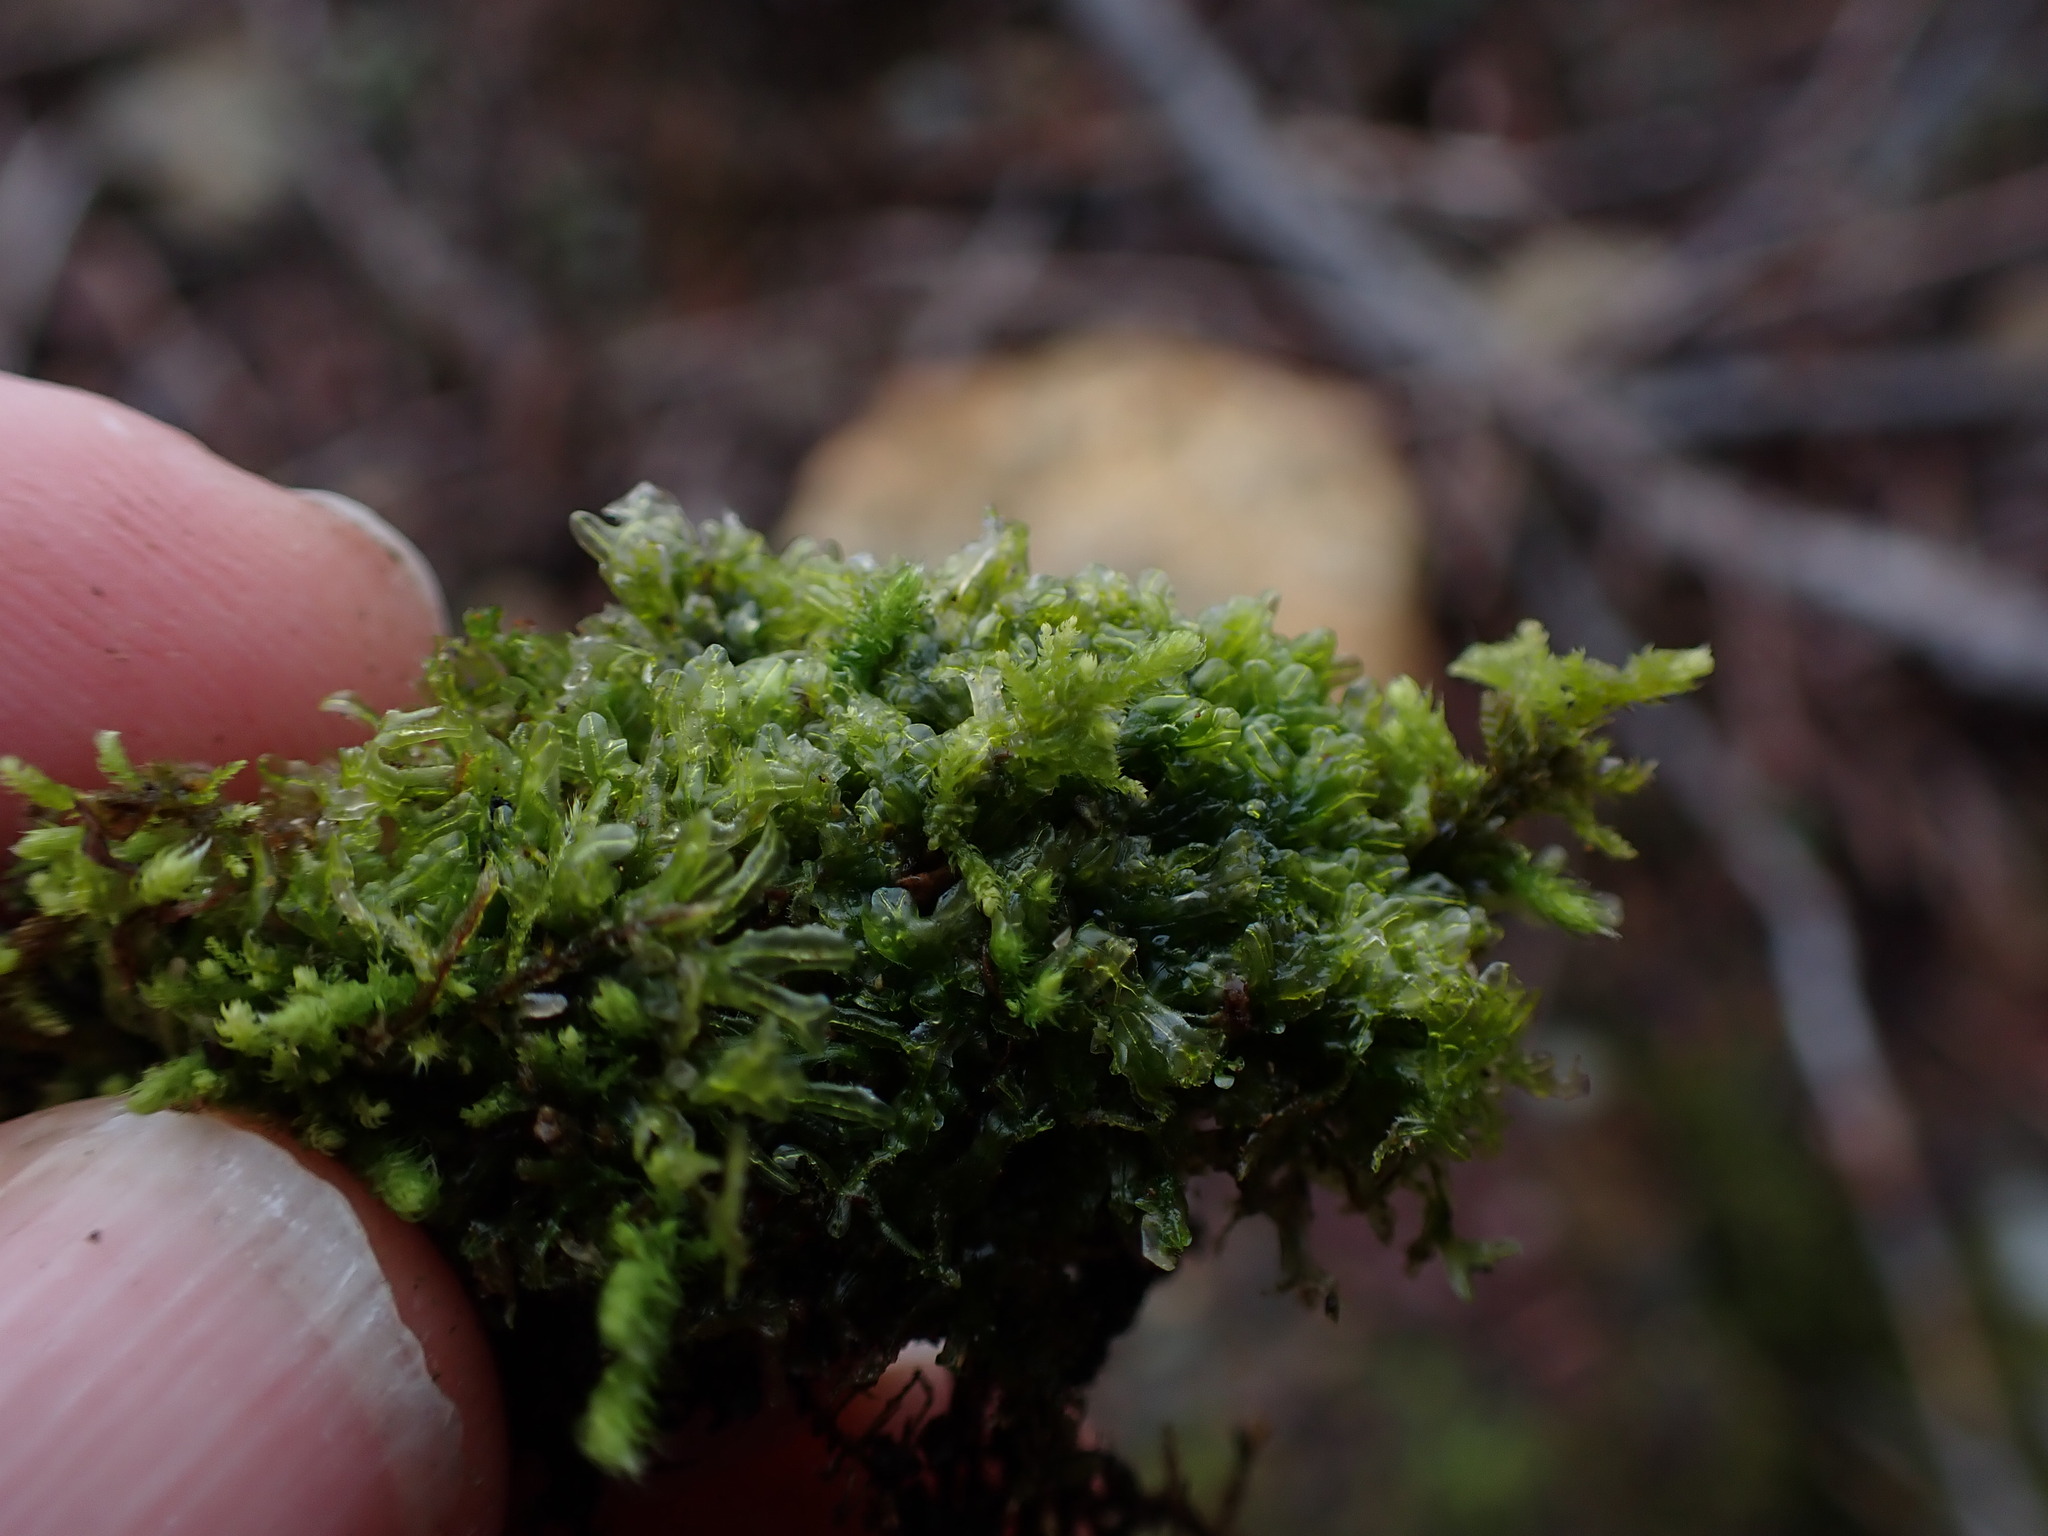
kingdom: Plantae
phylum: Marchantiophyta
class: Jungermanniopsida
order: Metzgeriales
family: Metzgeriaceae
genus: Metzgeria
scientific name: Metzgeria conjugata
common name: Rock veilwort
